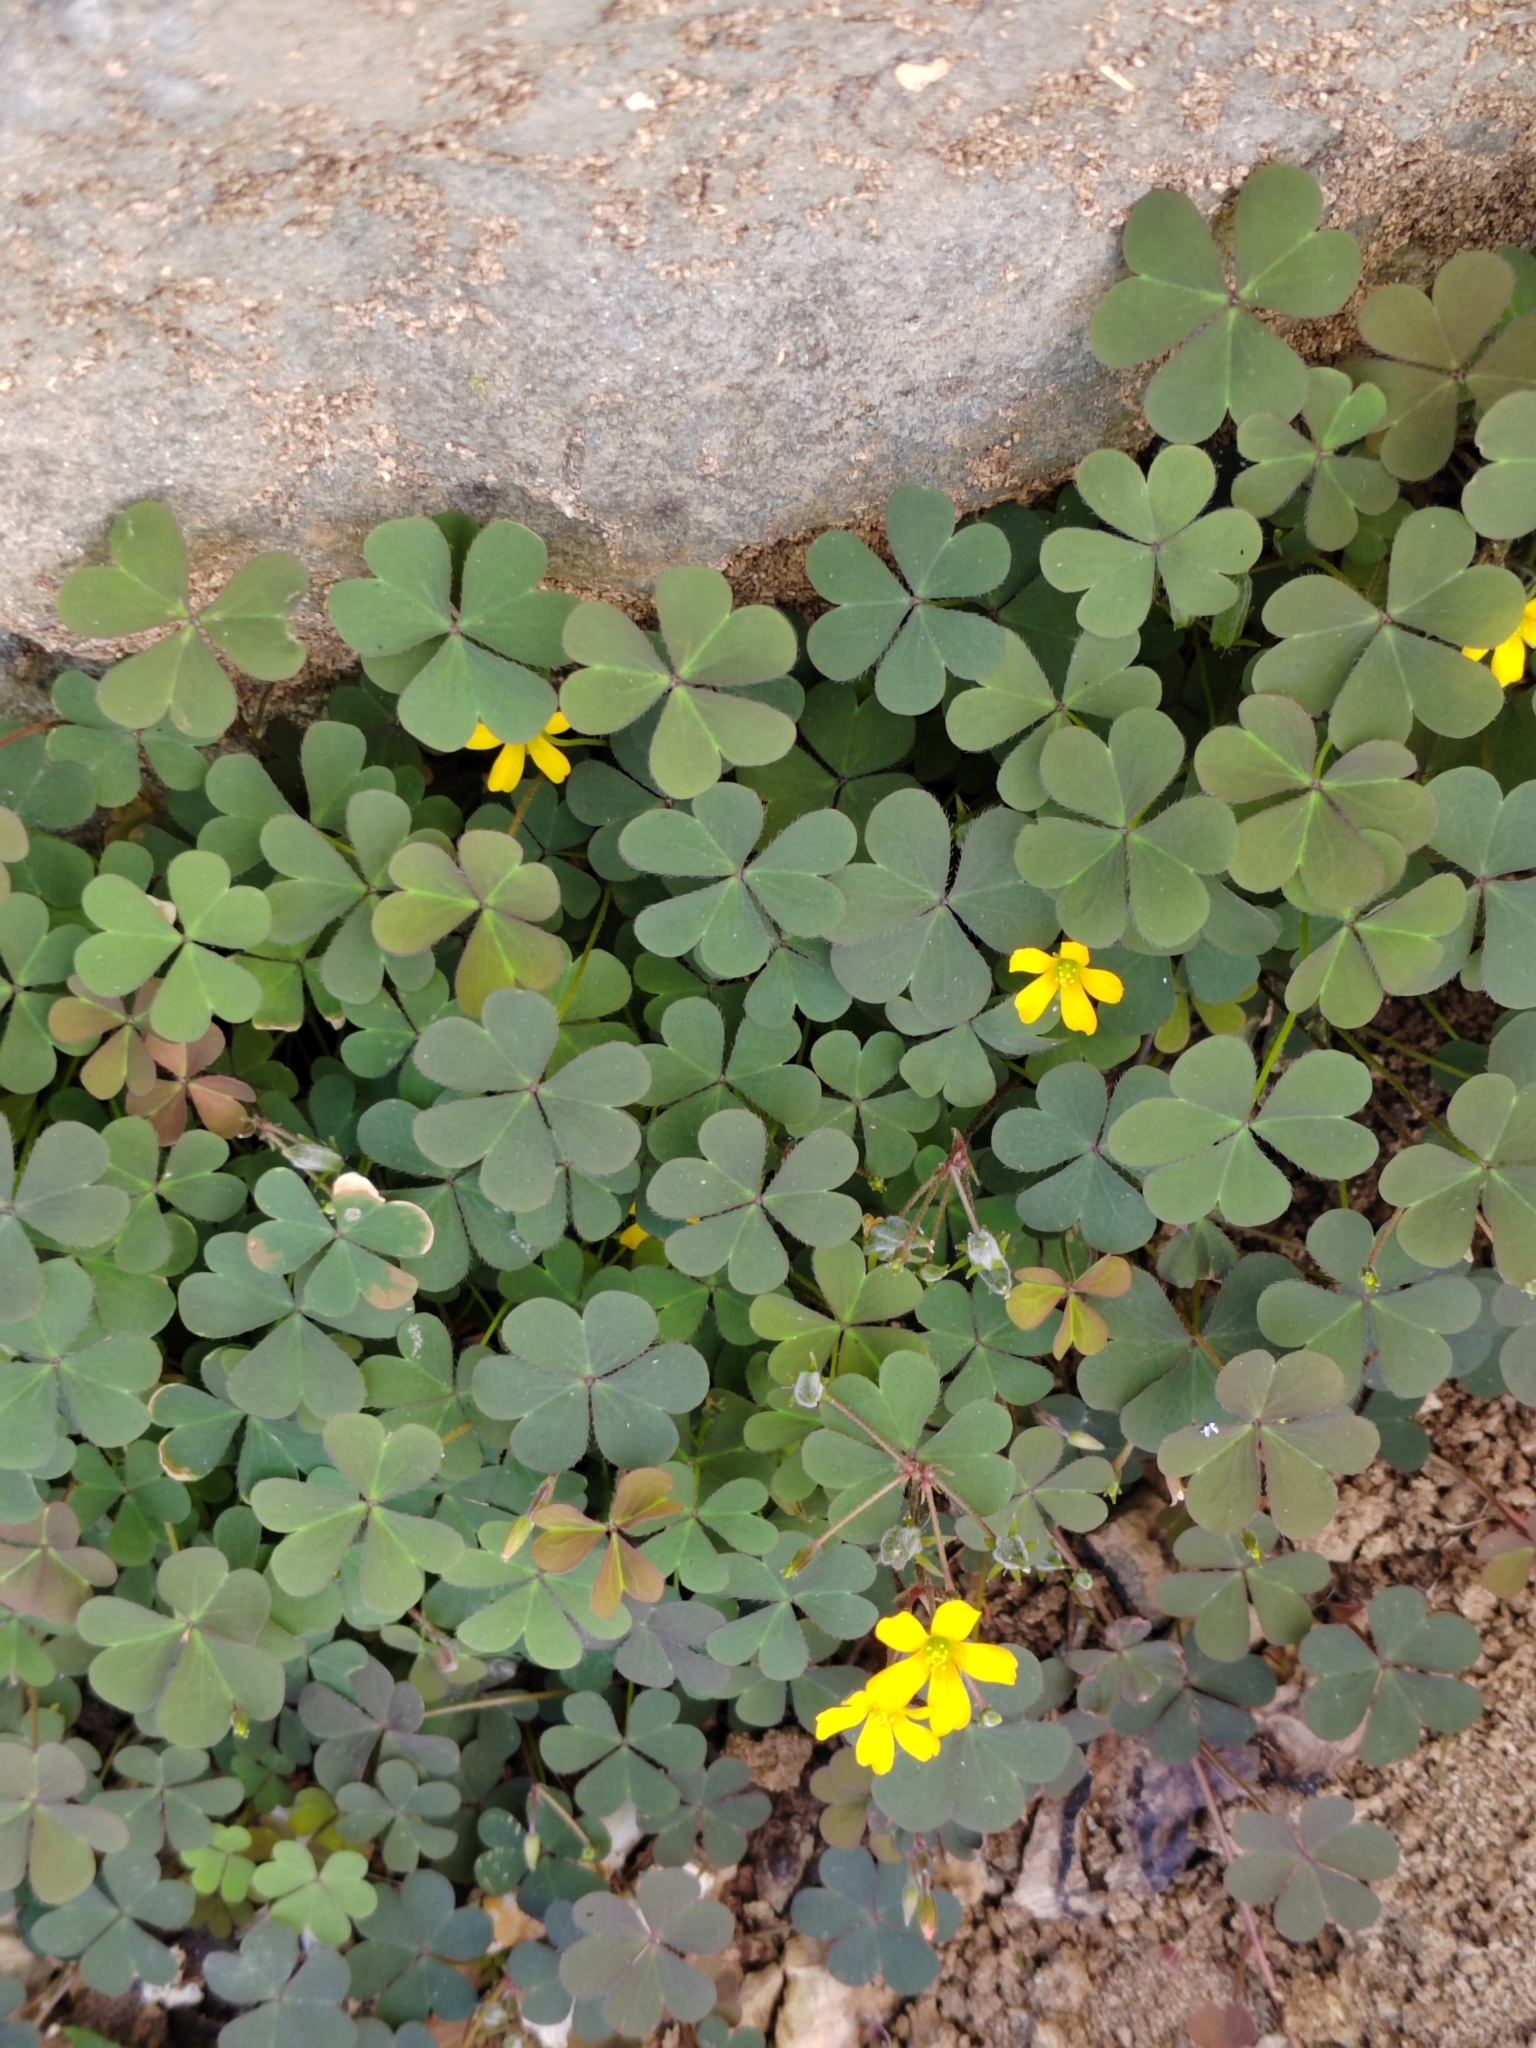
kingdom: Plantae
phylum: Tracheophyta
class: Magnoliopsida
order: Oxalidales
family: Oxalidaceae
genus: Oxalis
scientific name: Oxalis corniculata
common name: Procumbent yellow-sorrel
